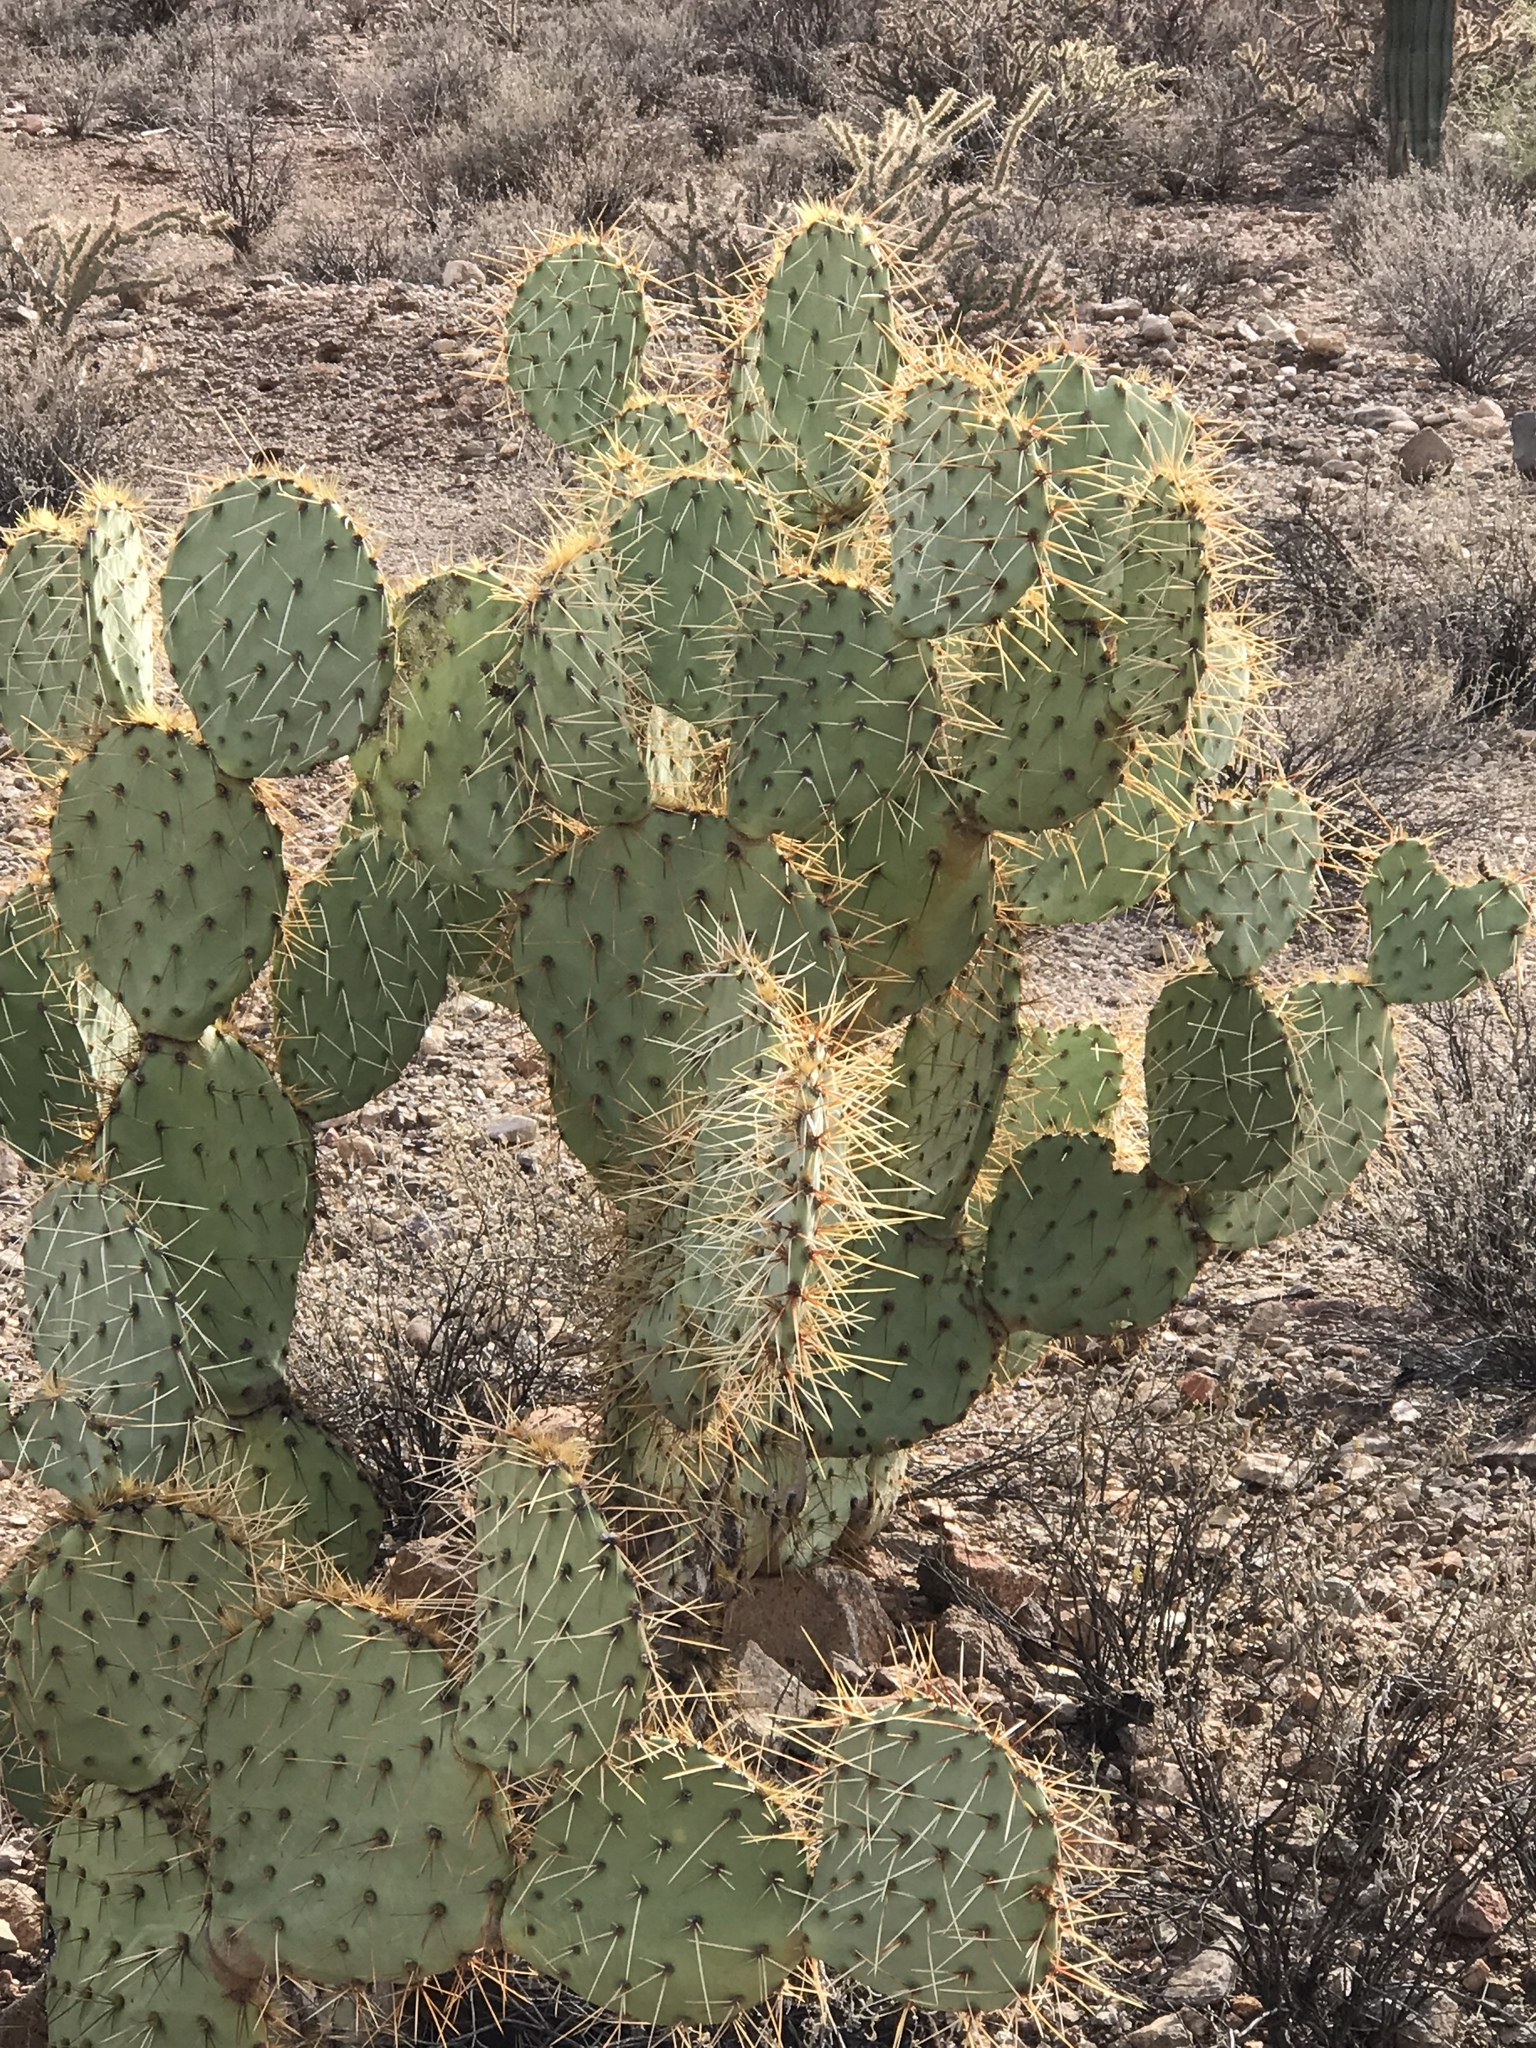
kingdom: Plantae
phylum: Tracheophyta
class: Magnoliopsida
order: Caryophyllales
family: Cactaceae
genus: Opuntia
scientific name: Opuntia engelmannii
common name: Cactus-apple
